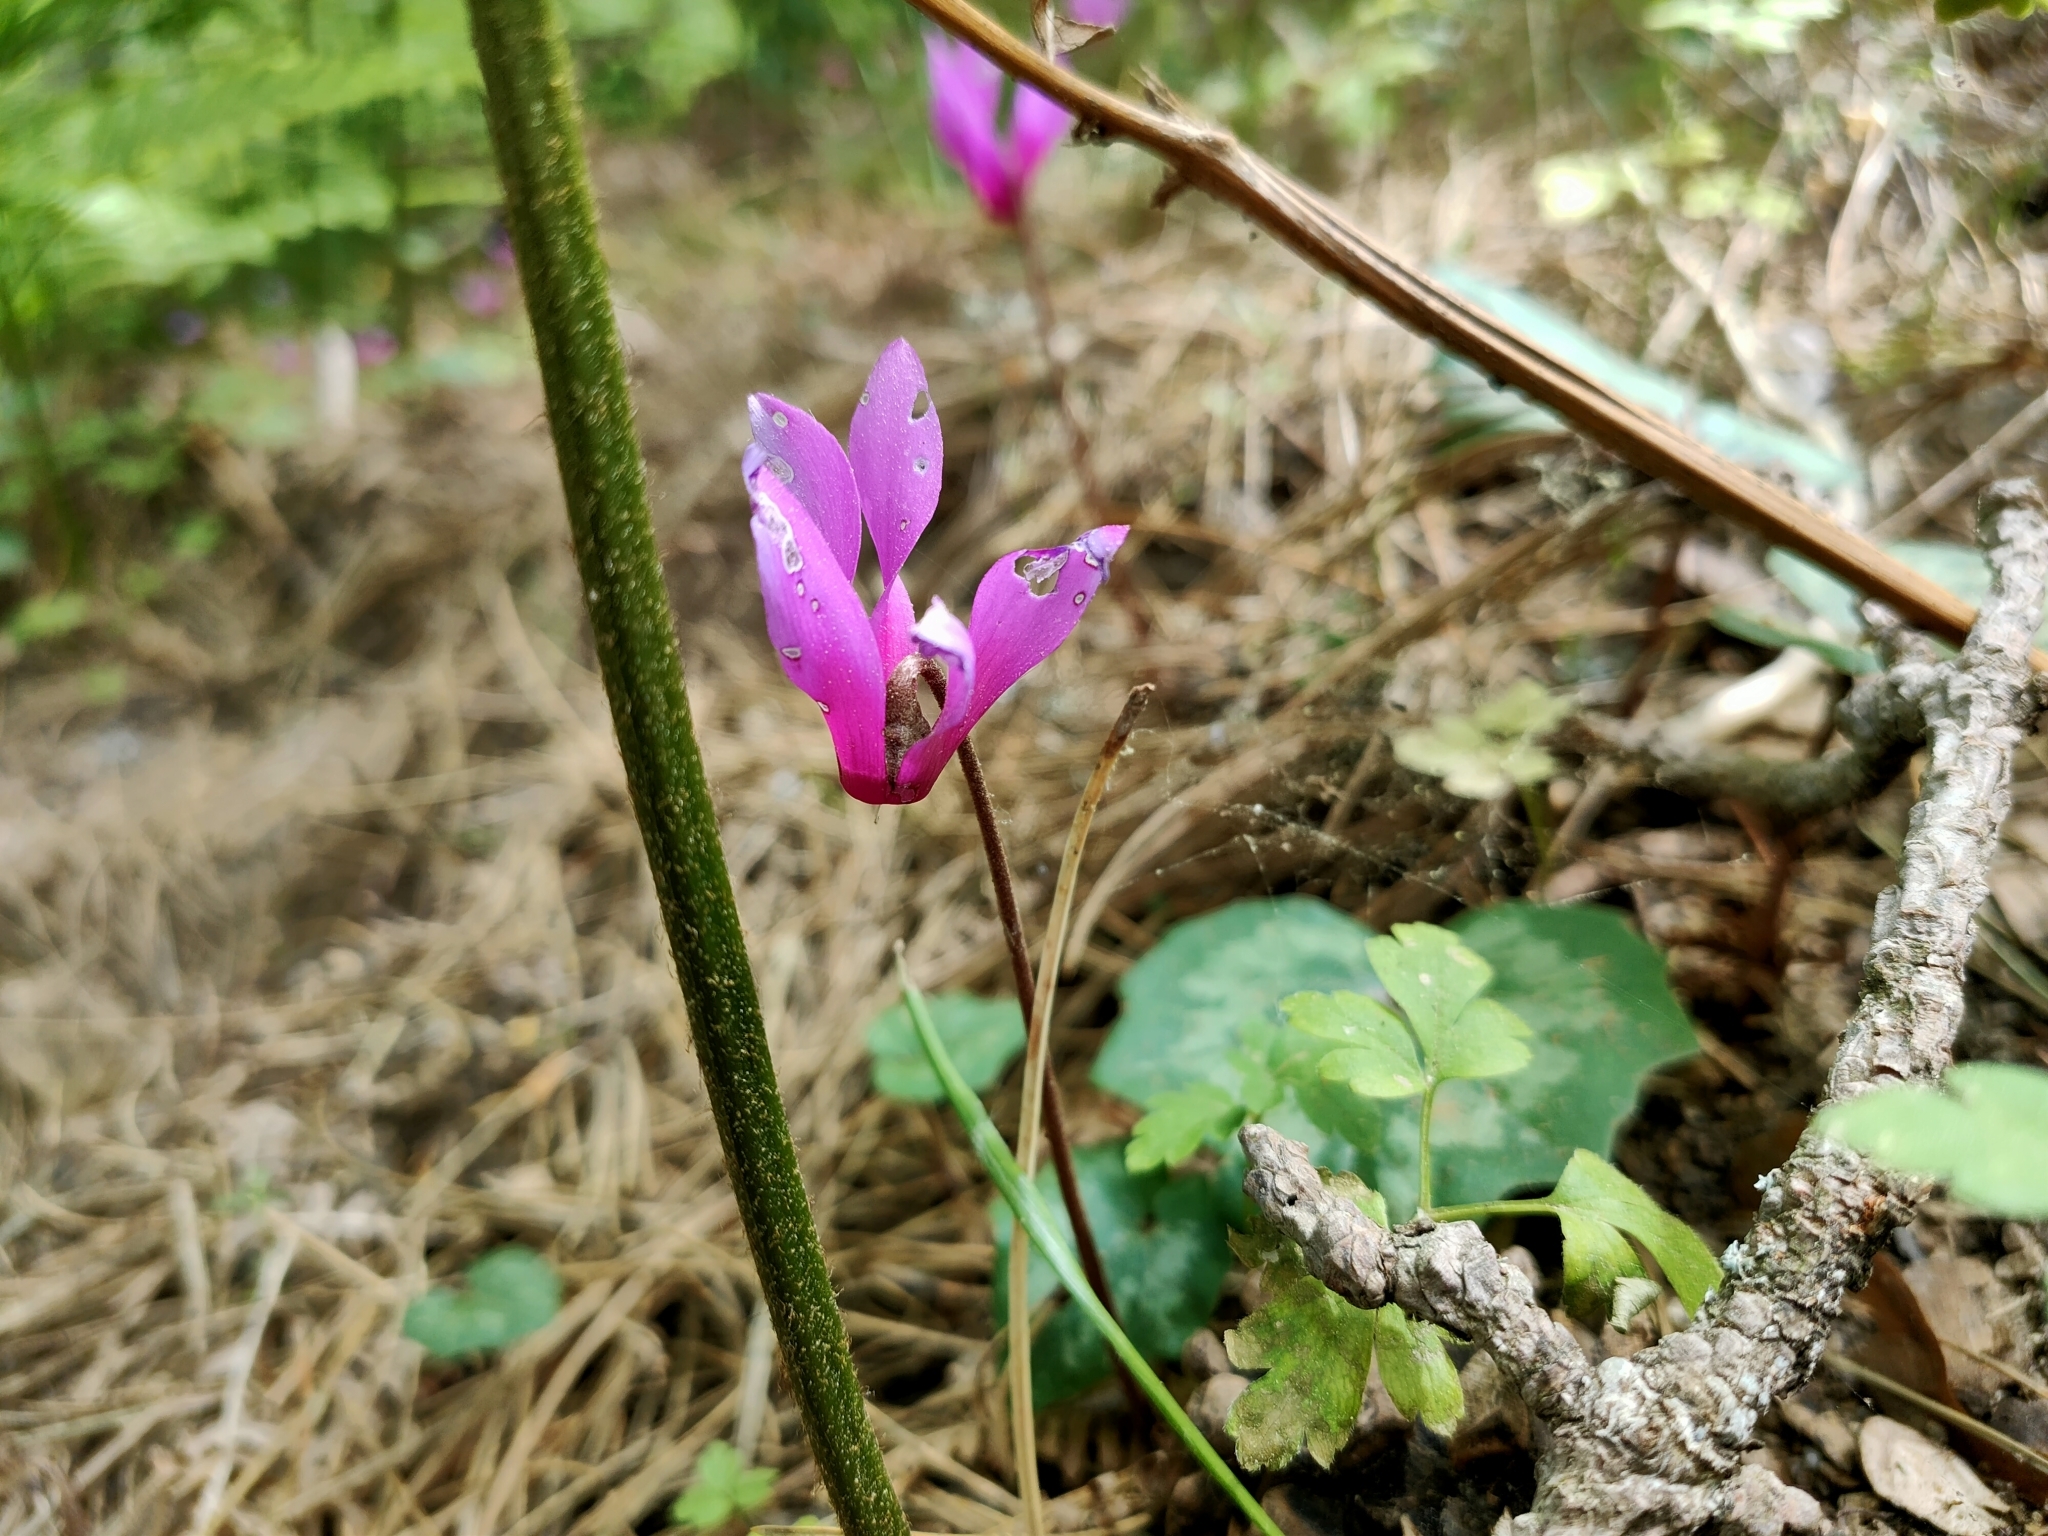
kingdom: Plantae
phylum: Tracheophyta
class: Magnoliopsida
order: Ericales
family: Primulaceae
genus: Cyclamen
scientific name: Cyclamen repandum
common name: Spring sowbread
